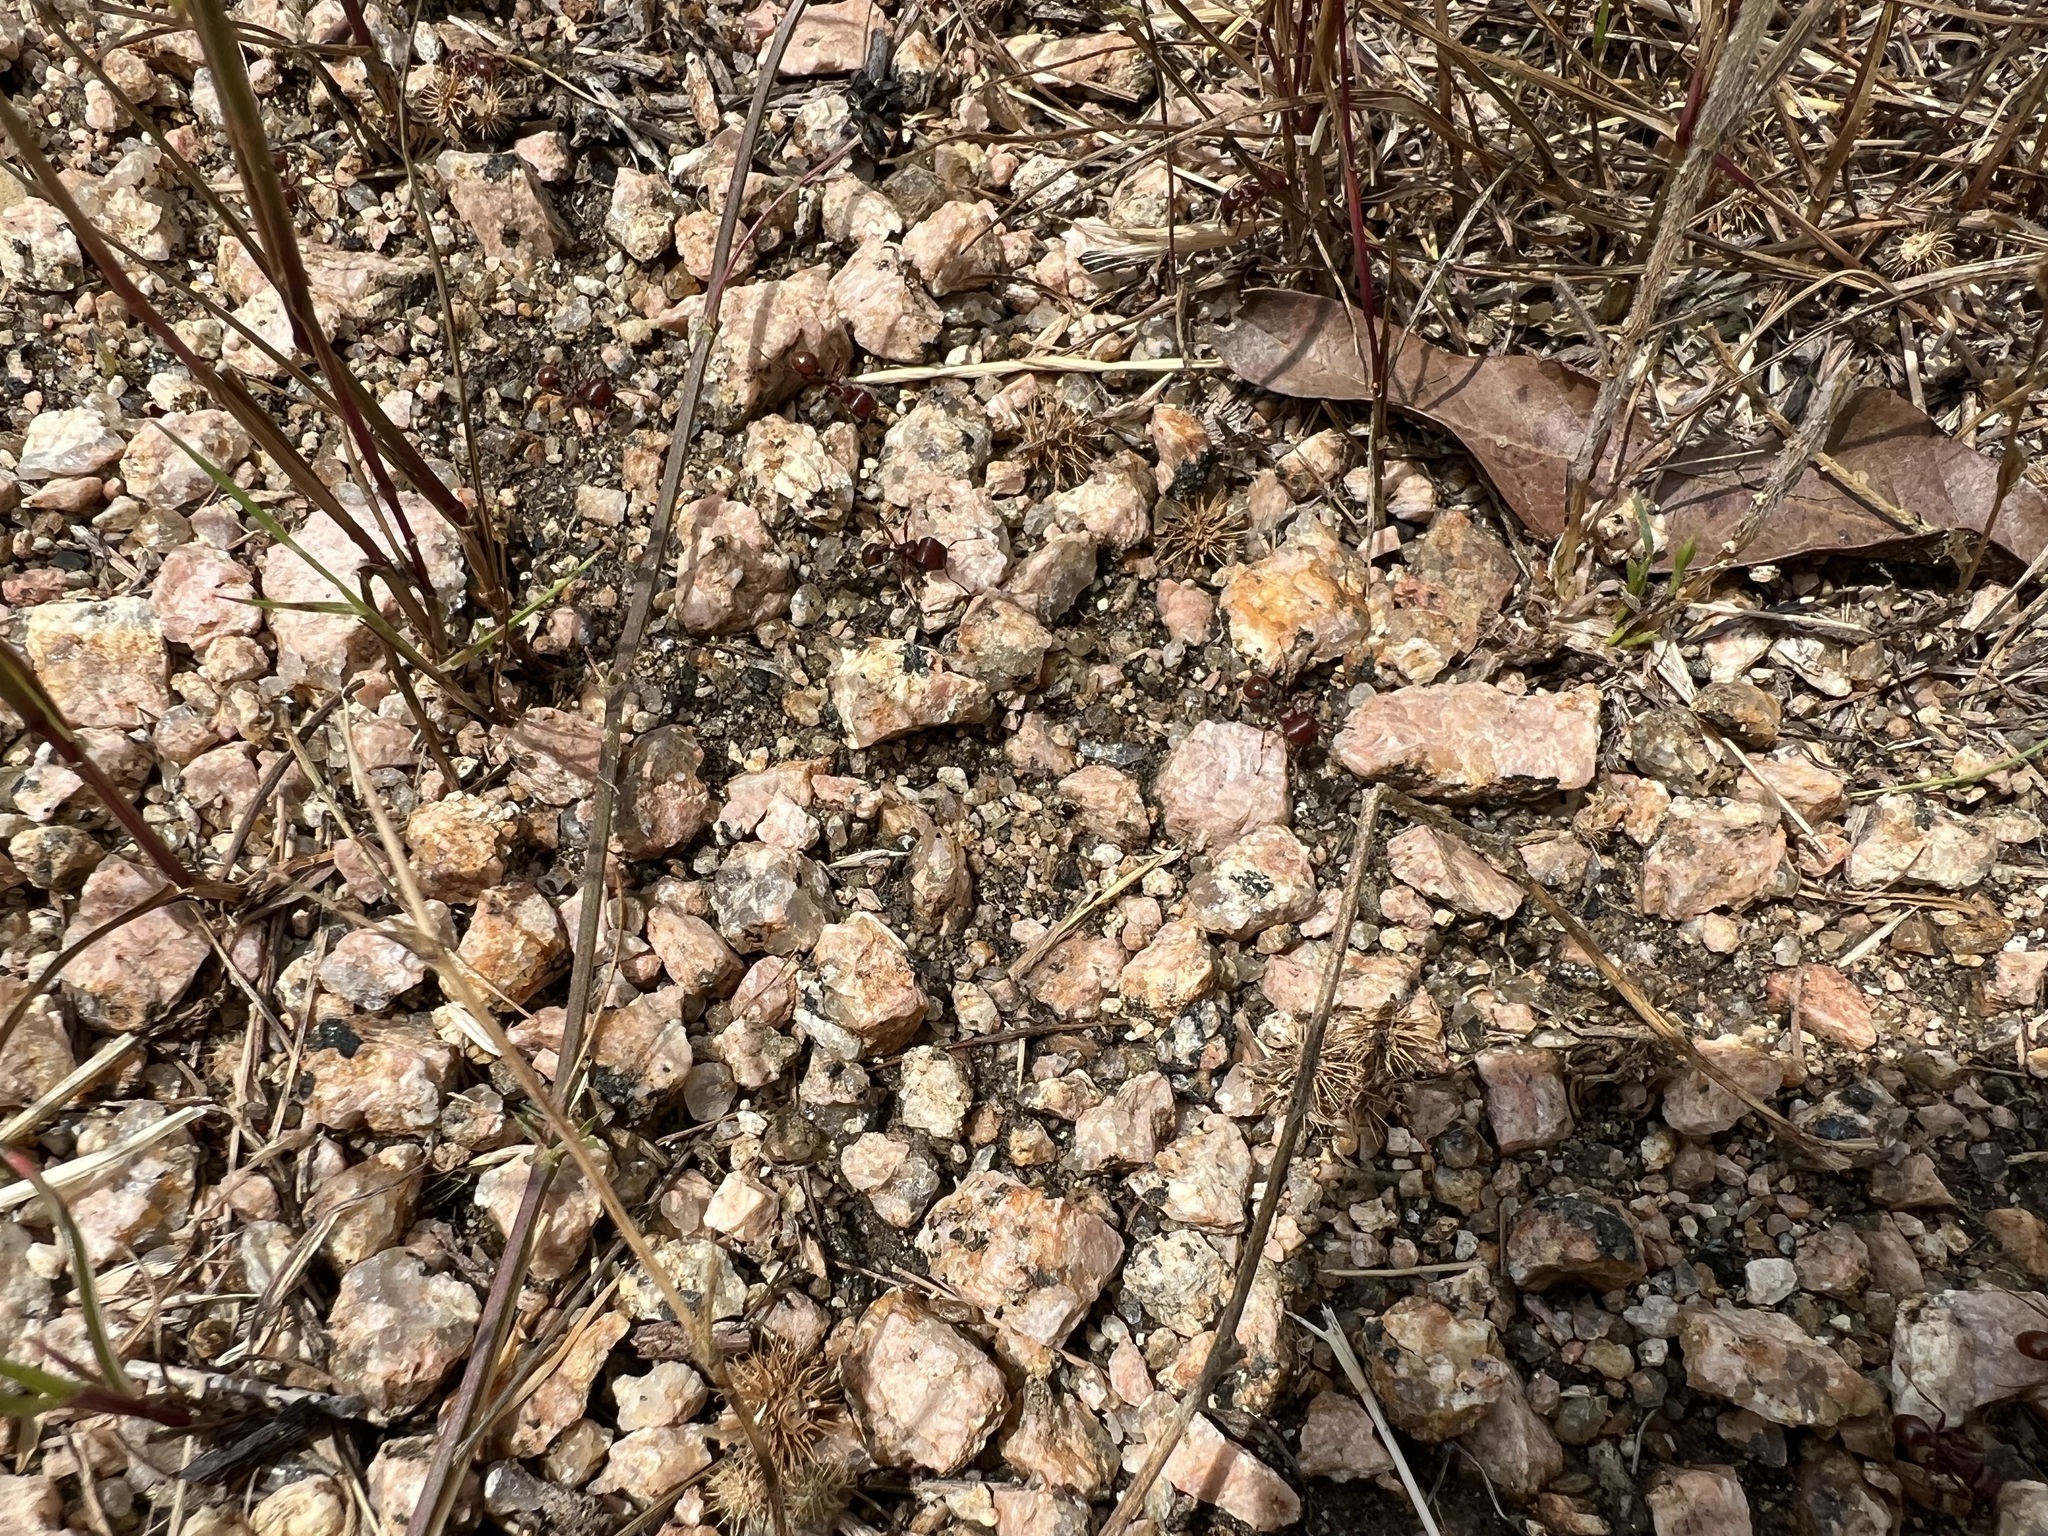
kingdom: Animalia
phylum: Arthropoda
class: Insecta
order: Hymenoptera
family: Formicidae
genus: Pogonomyrmex
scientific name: Pogonomyrmex barbatus
